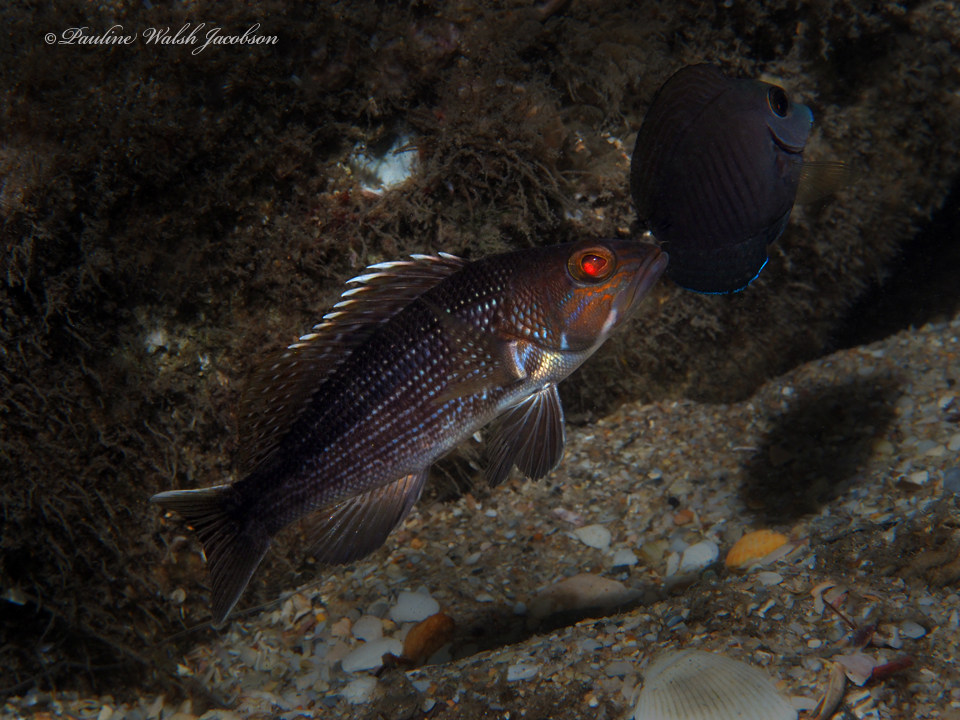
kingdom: Animalia
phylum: Chordata
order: Perciformes
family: Serranidae
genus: Centropristis
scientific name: Centropristis striata
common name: Black sea bass
